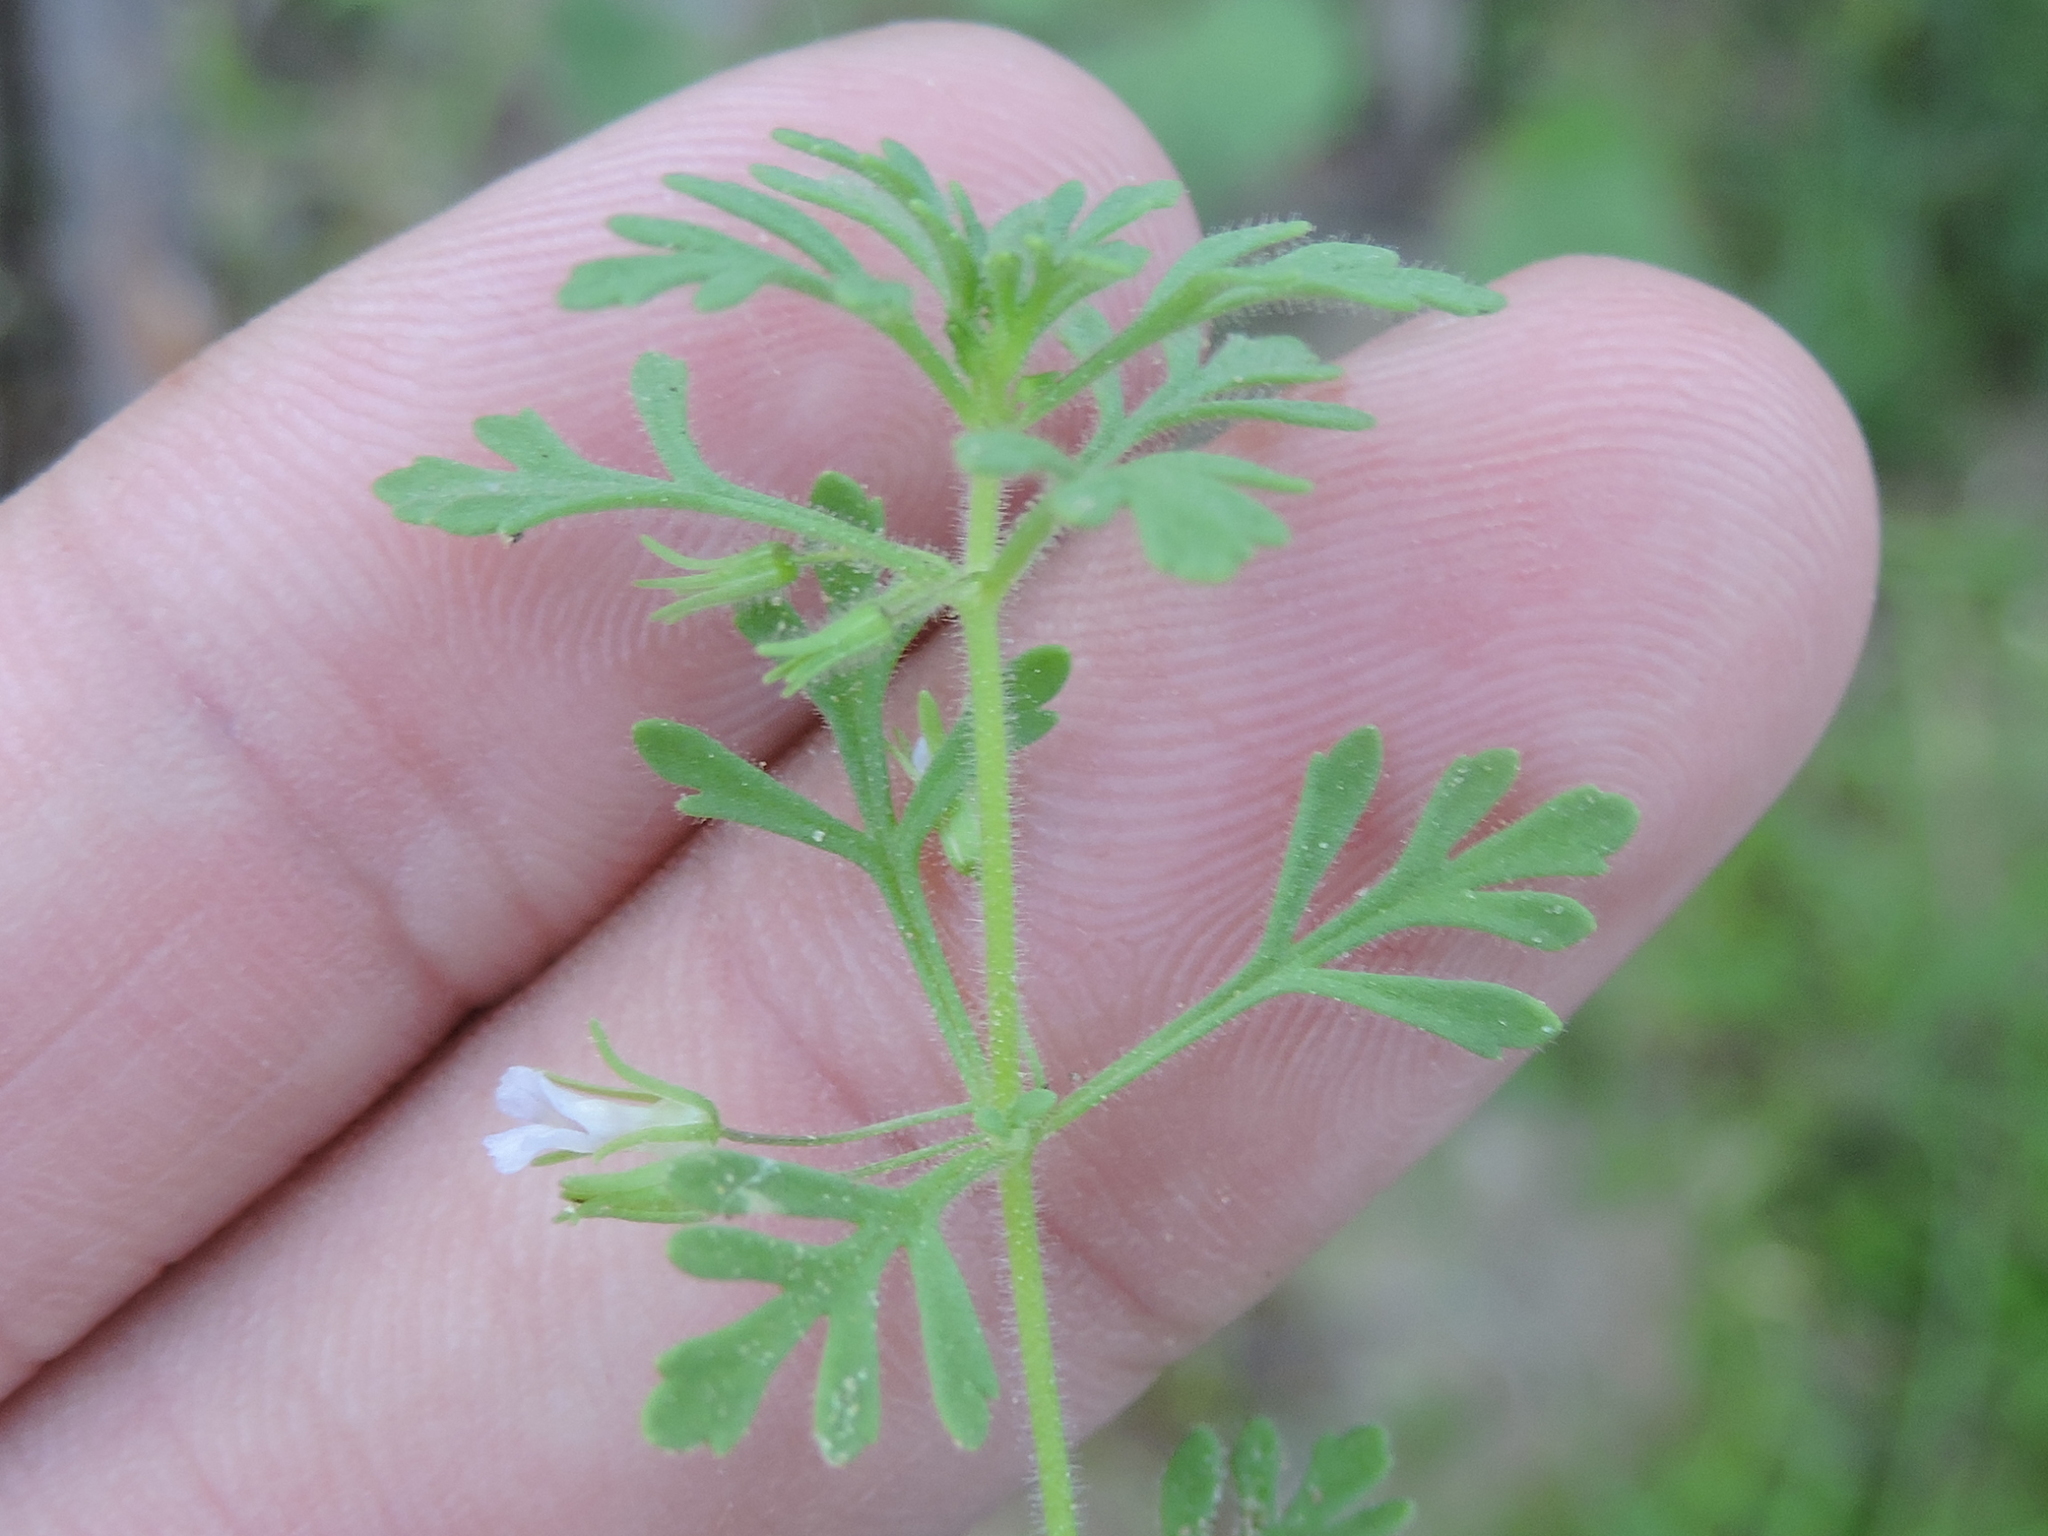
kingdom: Plantae
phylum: Tracheophyta
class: Magnoliopsida
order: Lamiales
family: Plantaginaceae
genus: Leucospora
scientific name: Leucospora multifida
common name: Narrow-leaf paleseed
